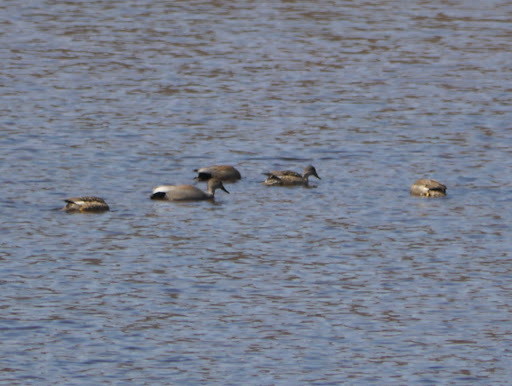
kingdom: Animalia
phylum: Chordata
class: Aves
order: Anseriformes
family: Anatidae
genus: Mareca
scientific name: Mareca strepera
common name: Gadwall
